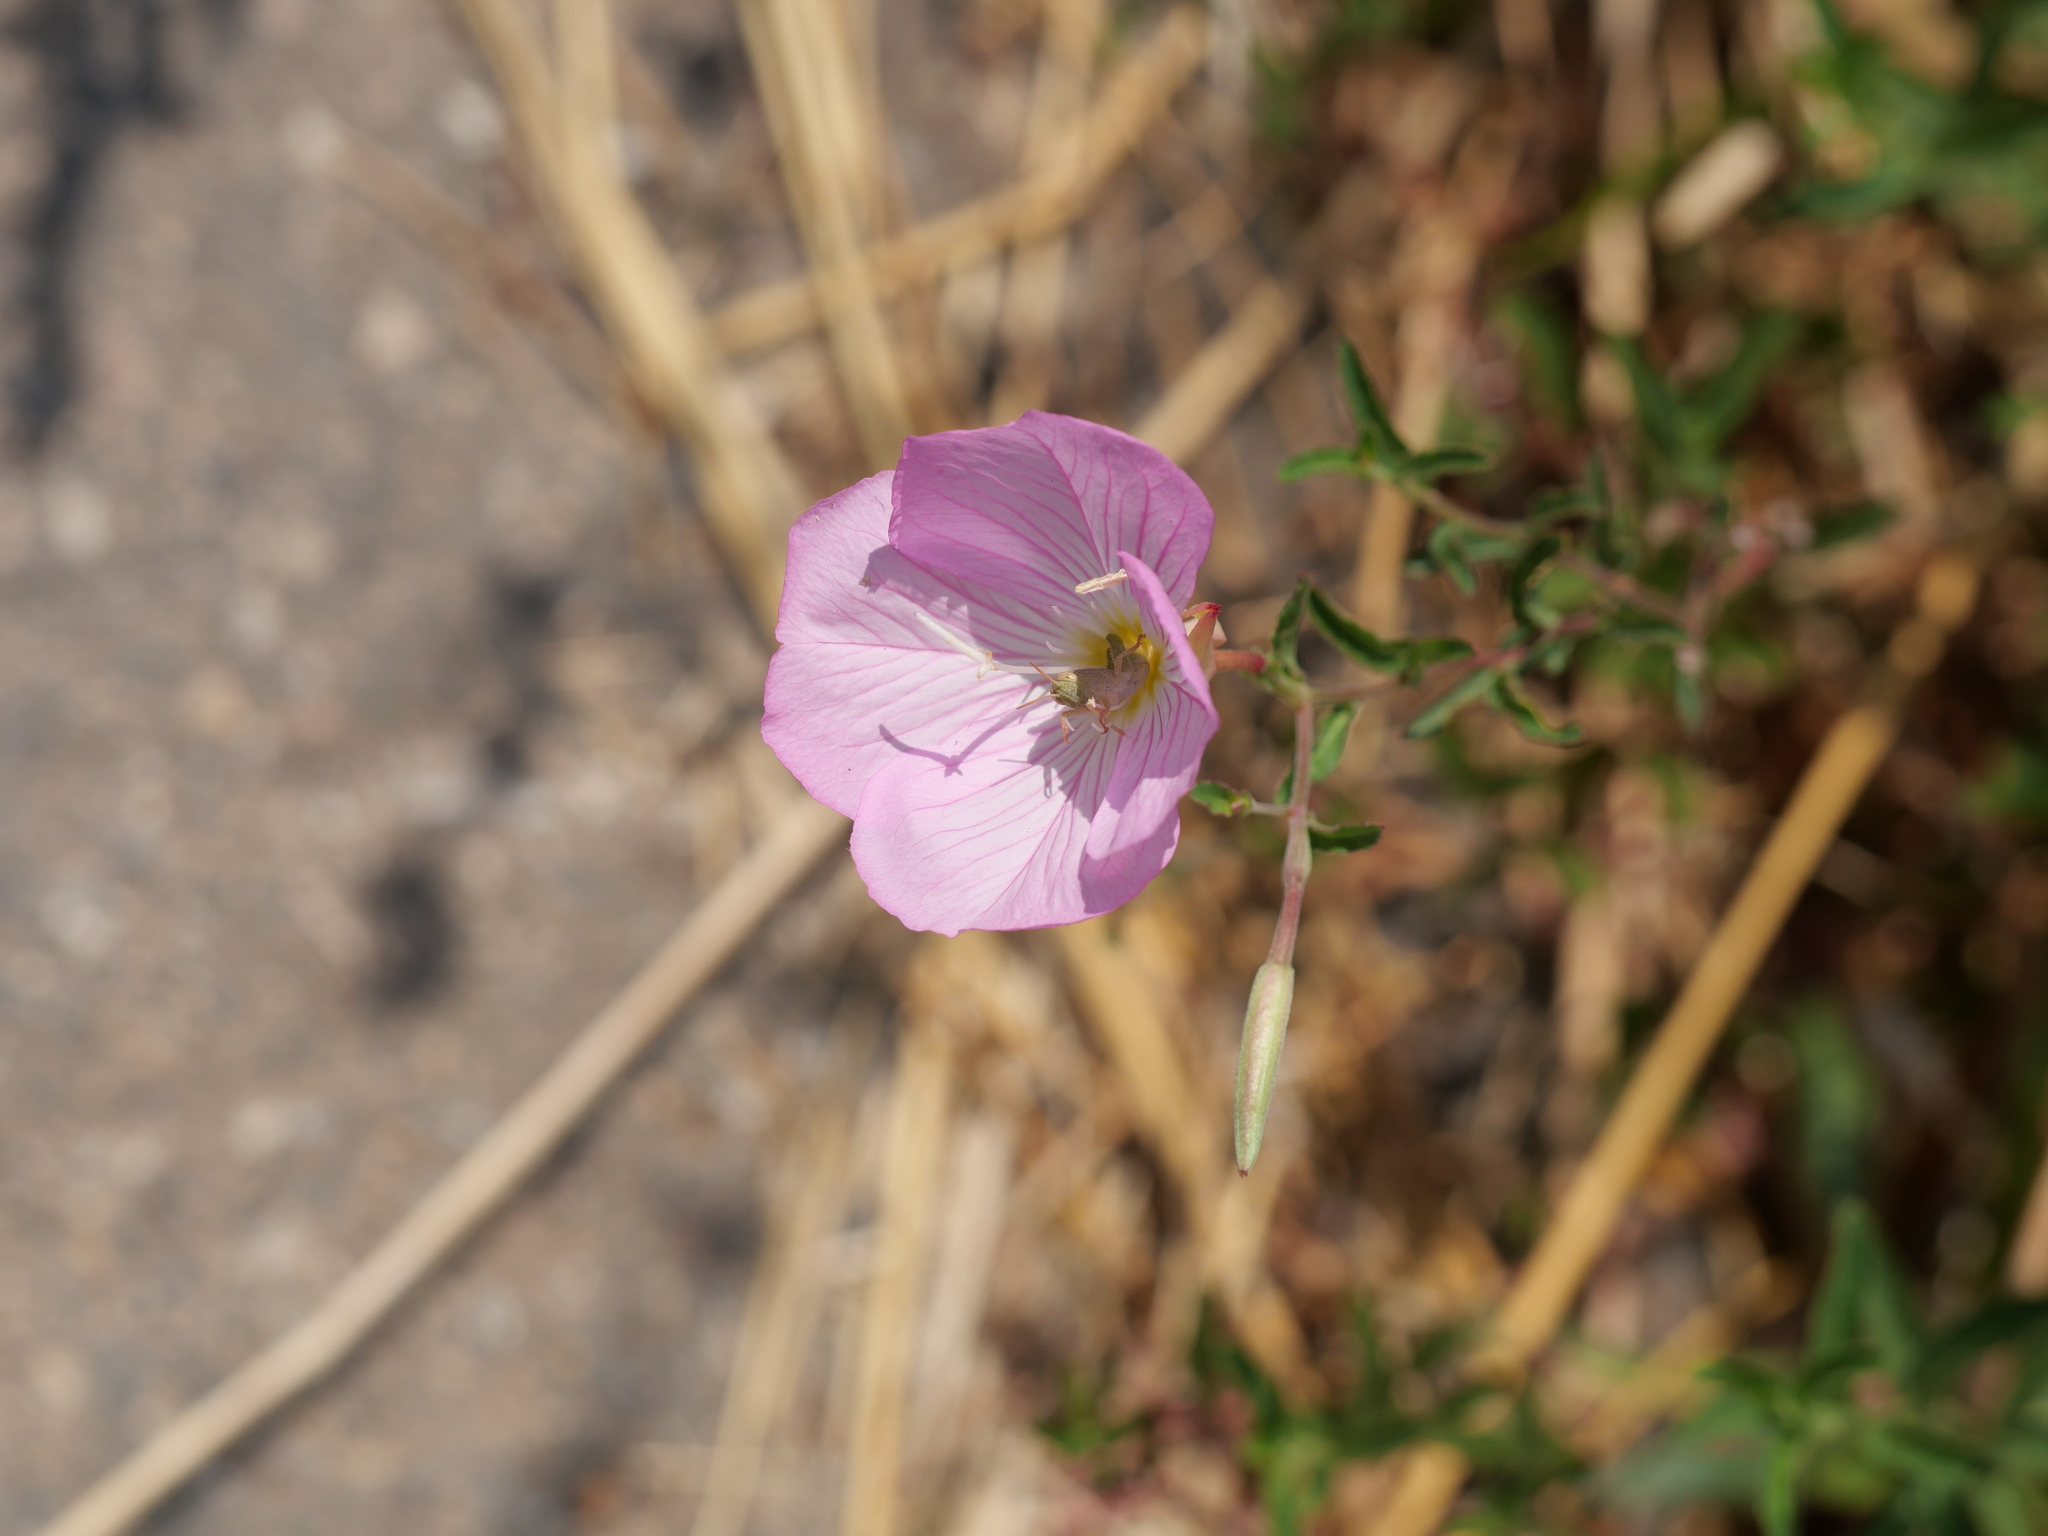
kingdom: Plantae
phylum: Tracheophyta
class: Magnoliopsida
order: Myrtales
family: Onagraceae
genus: Oenothera
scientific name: Oenothera speciosa
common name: White evening-primrose
